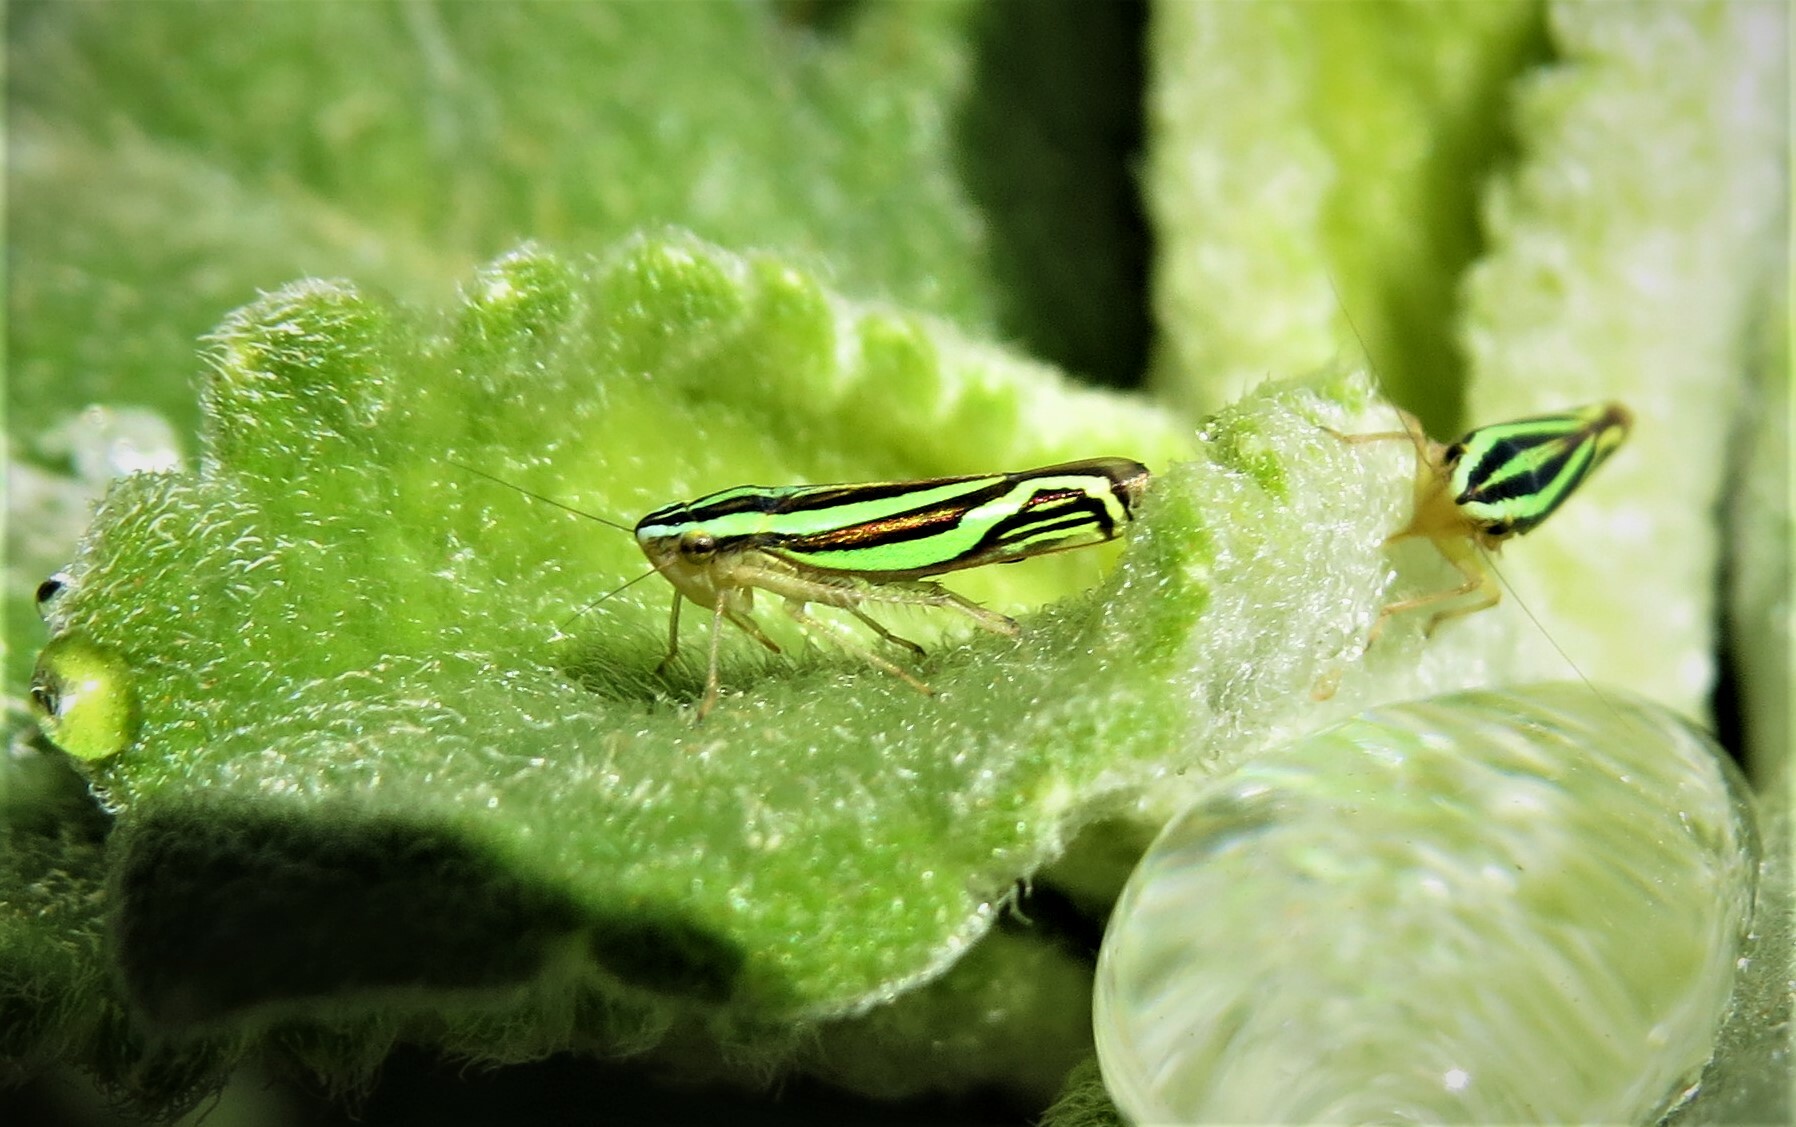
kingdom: Animalia
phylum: Arthropoda
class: Insecta
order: Hemiptera
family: Cicadellidae
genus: Sibovia
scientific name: Sibovia sagata
